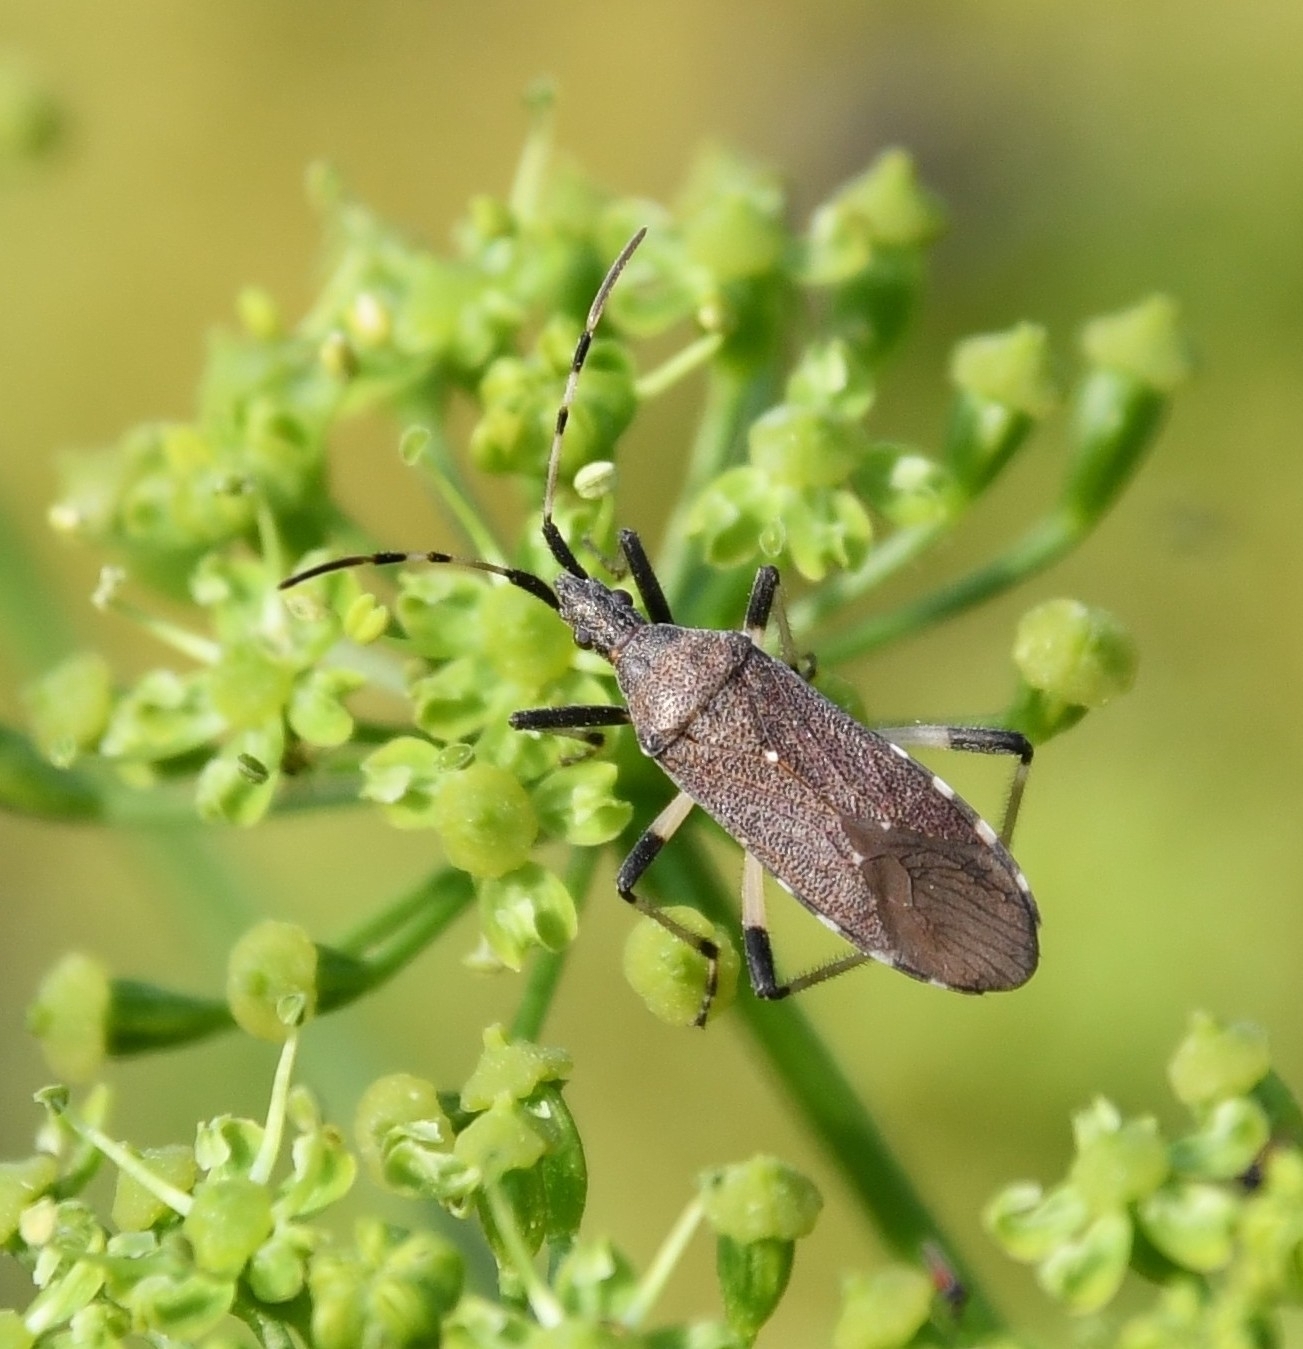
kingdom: Animalia
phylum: Arthropoda
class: Insecta
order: Hemiptera
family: Stenocephalidae
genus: Dicranocephalus
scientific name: Dicranocephalus albipes
